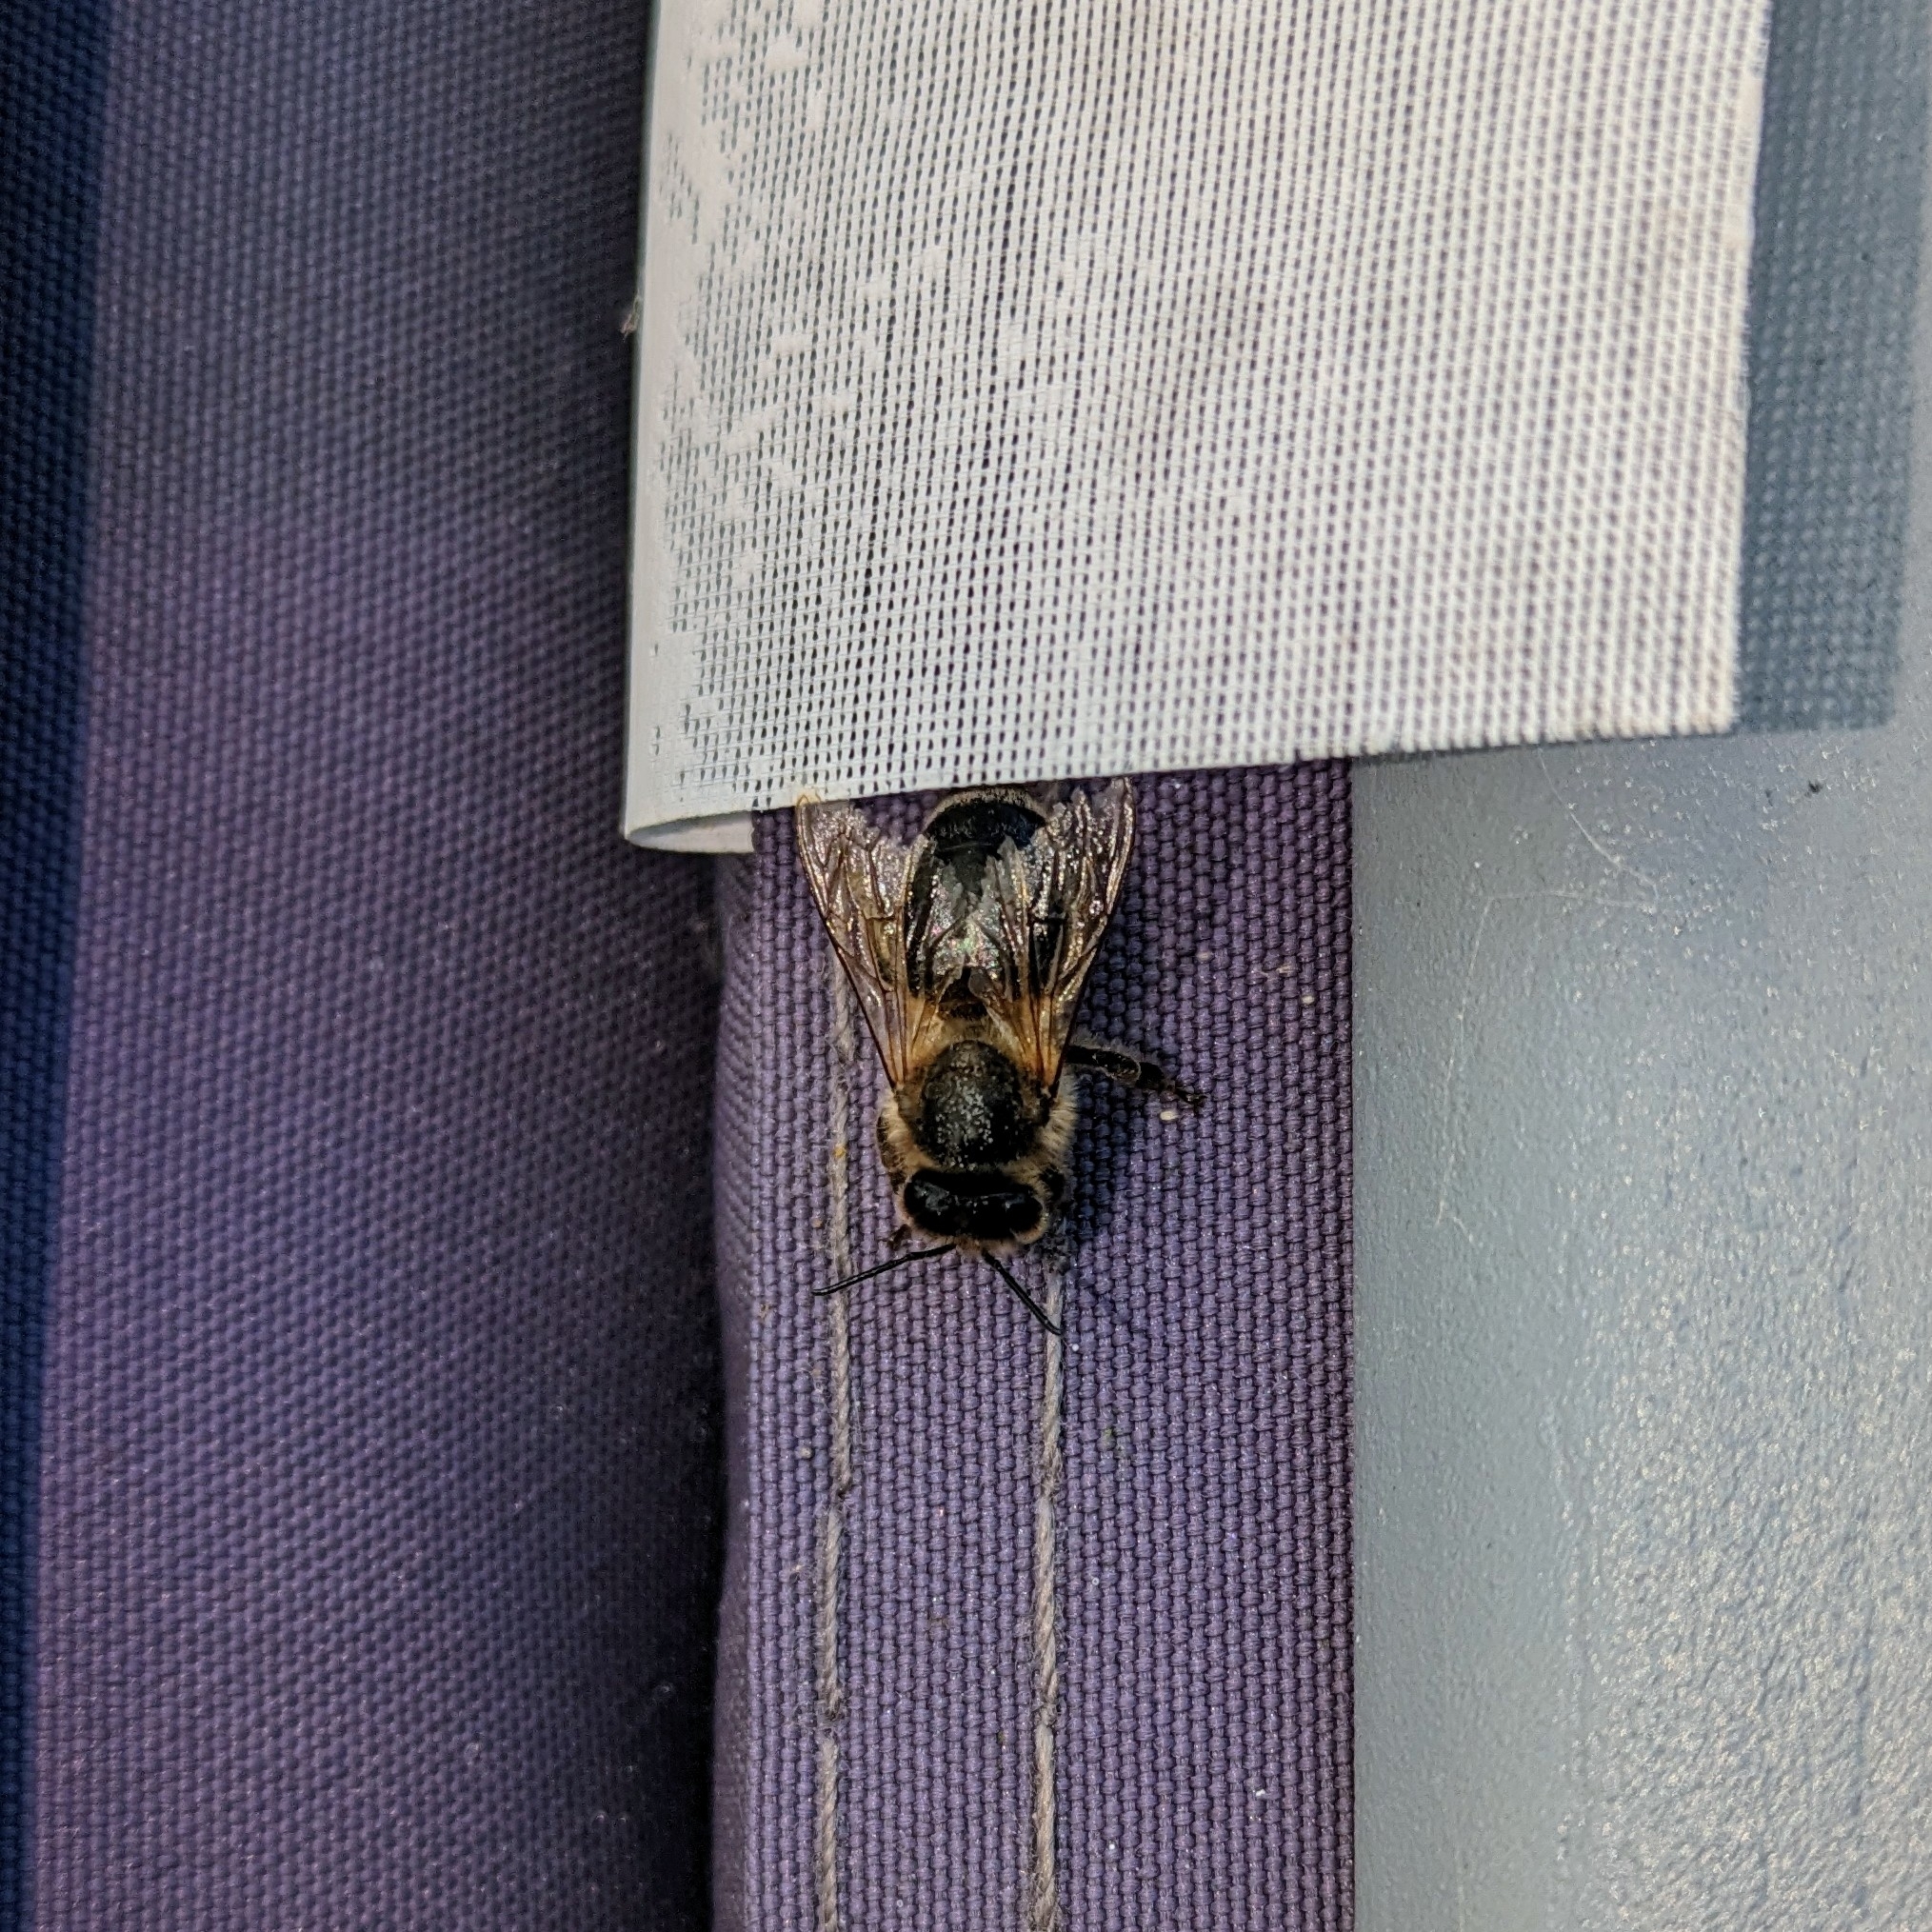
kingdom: Animalia
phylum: Arthropoda
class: Insecta
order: Hymenoptera
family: Apidae
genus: Apis
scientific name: Apis mellifera
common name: Honey bee
